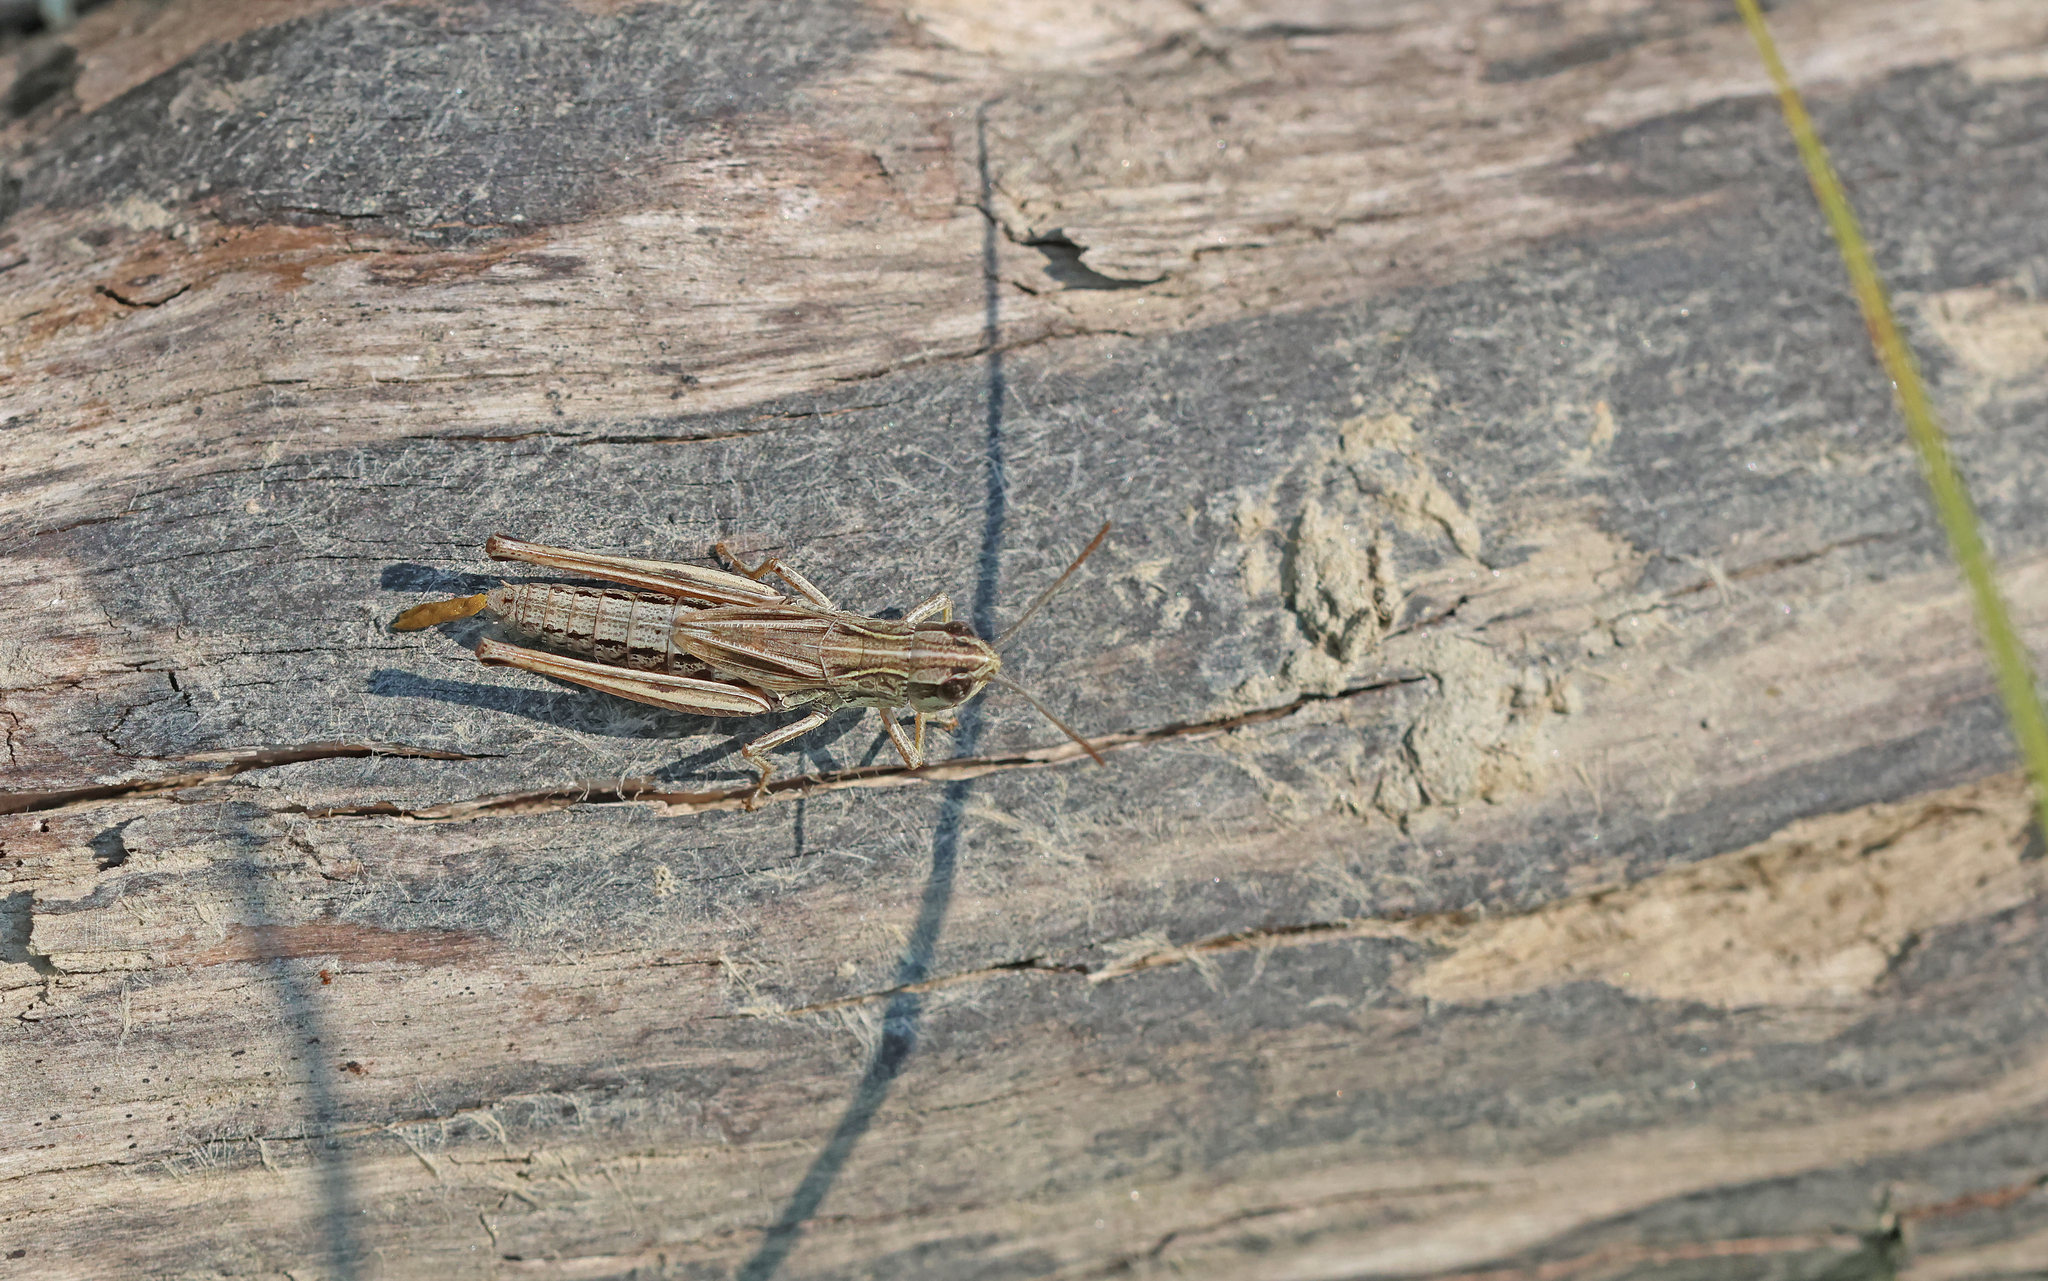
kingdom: Animalia
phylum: Arthropoda
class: Insecta
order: Orthoptera
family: Acrididae
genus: Pseudochorthippus
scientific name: Pseudochorthippus parallelus
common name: Meadow grasshopper
